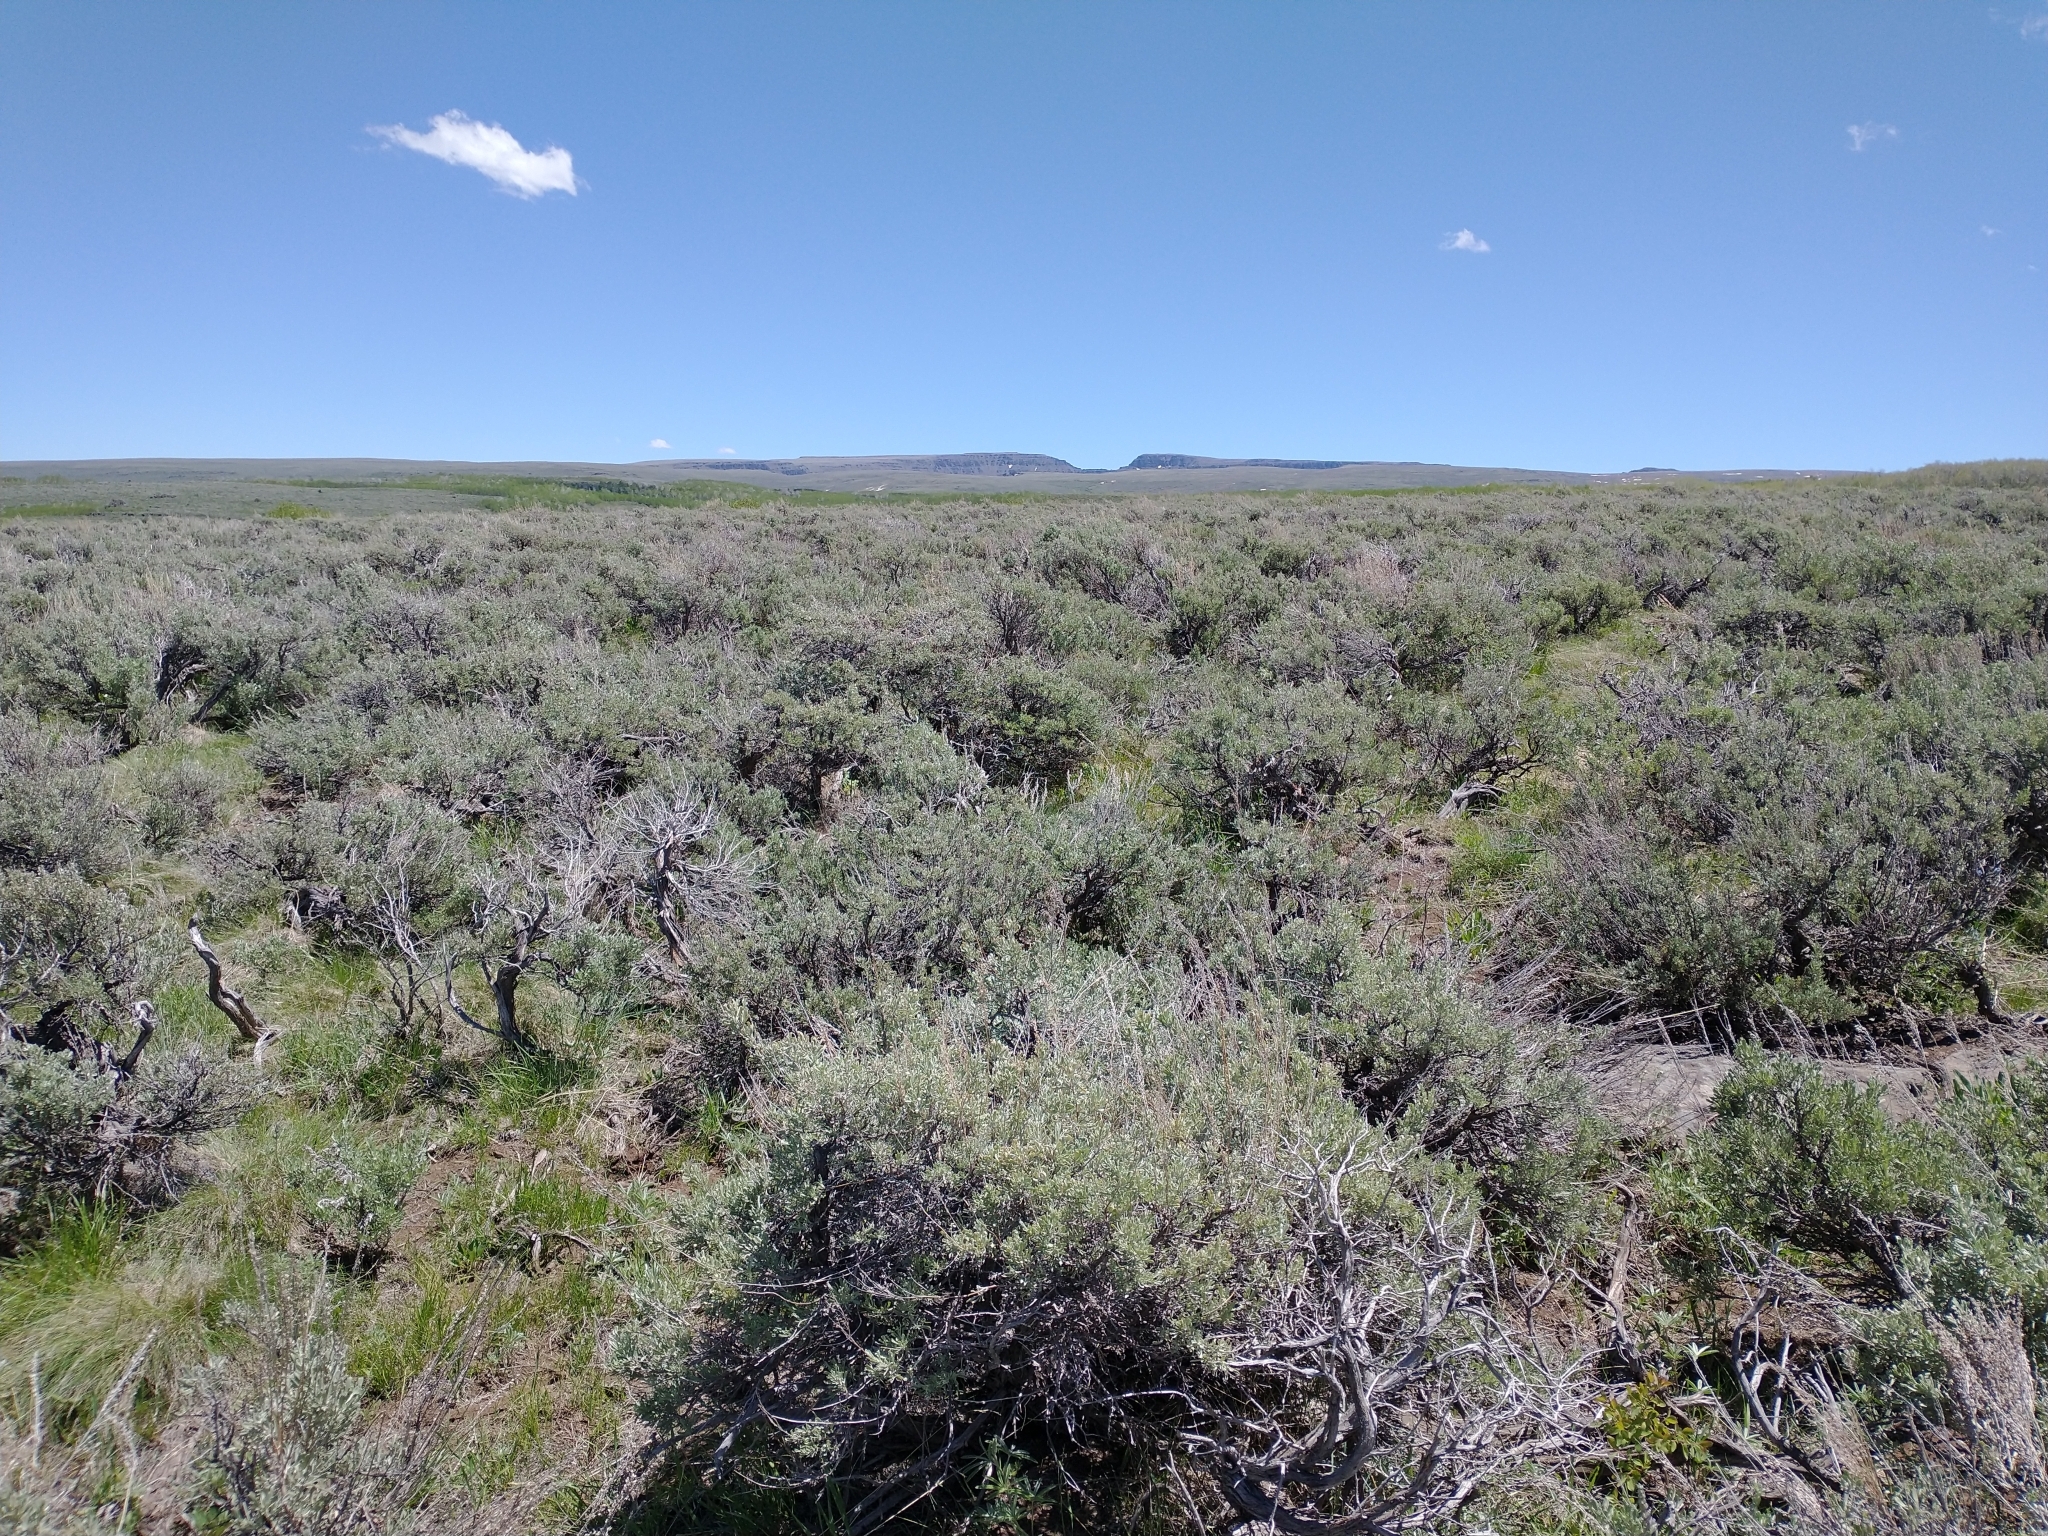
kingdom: Plantae
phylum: Tracheophyta
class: Magnoliopsida
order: Asterales
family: Asteraceae
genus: Artemisia
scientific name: Artemisia tridentata
